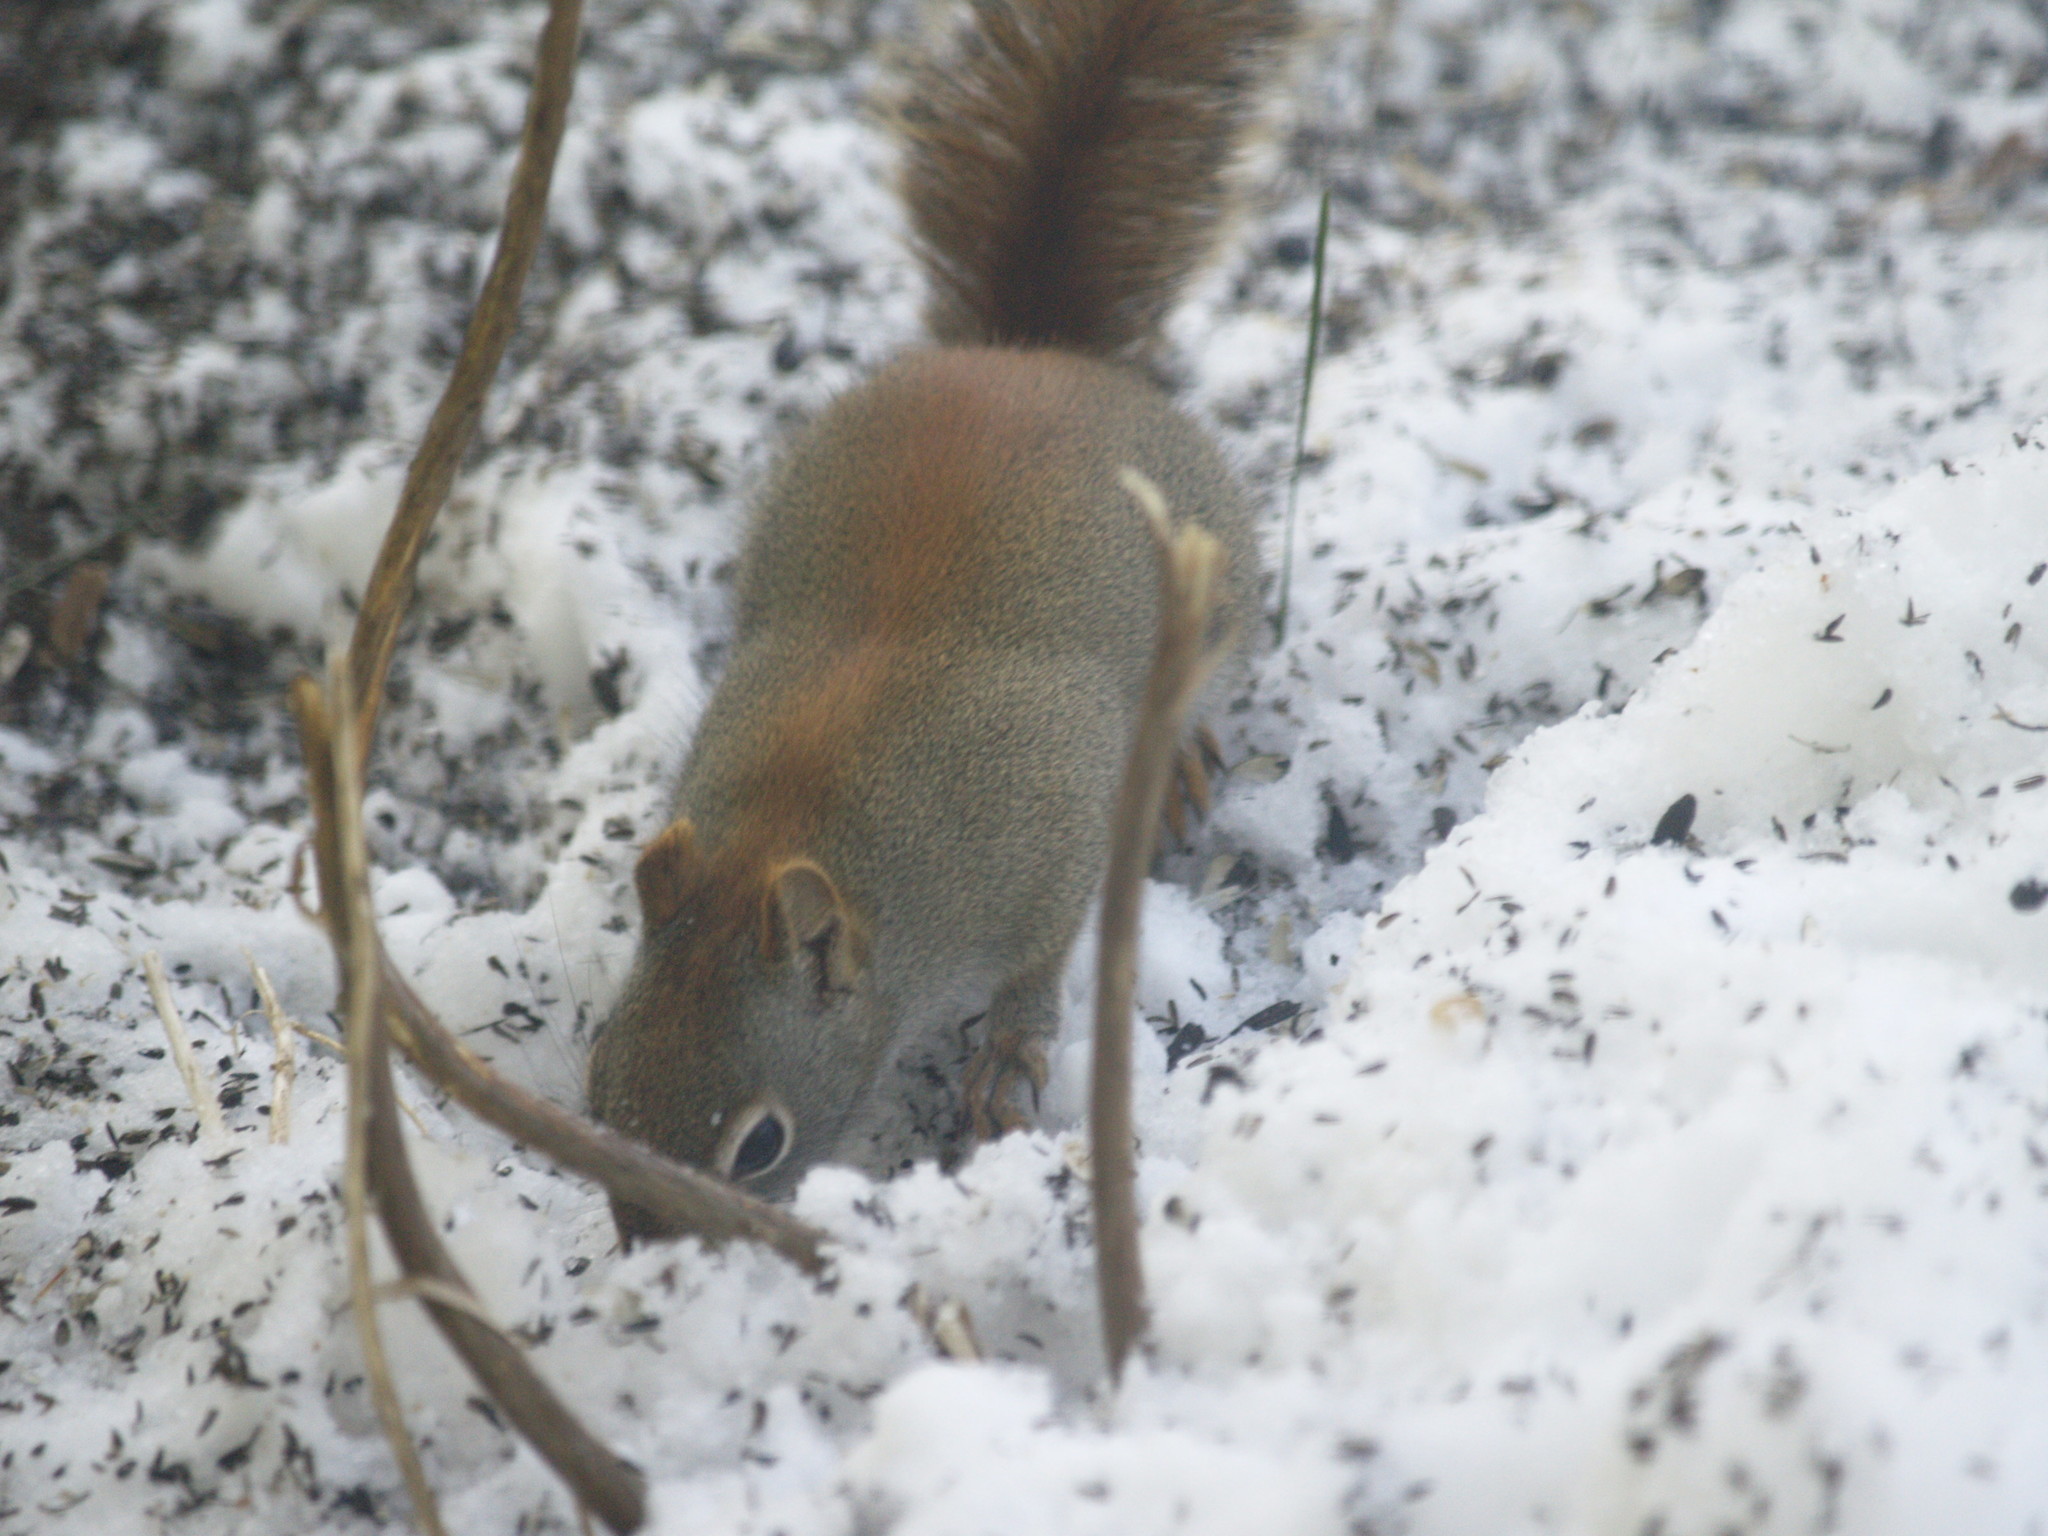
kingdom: Animalia
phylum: Chordata
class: Mammalia
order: Rodentia
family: Sciuridae
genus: Tamiasciurus
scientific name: Tamiasciurus hudsonicus
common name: Red squirrel
